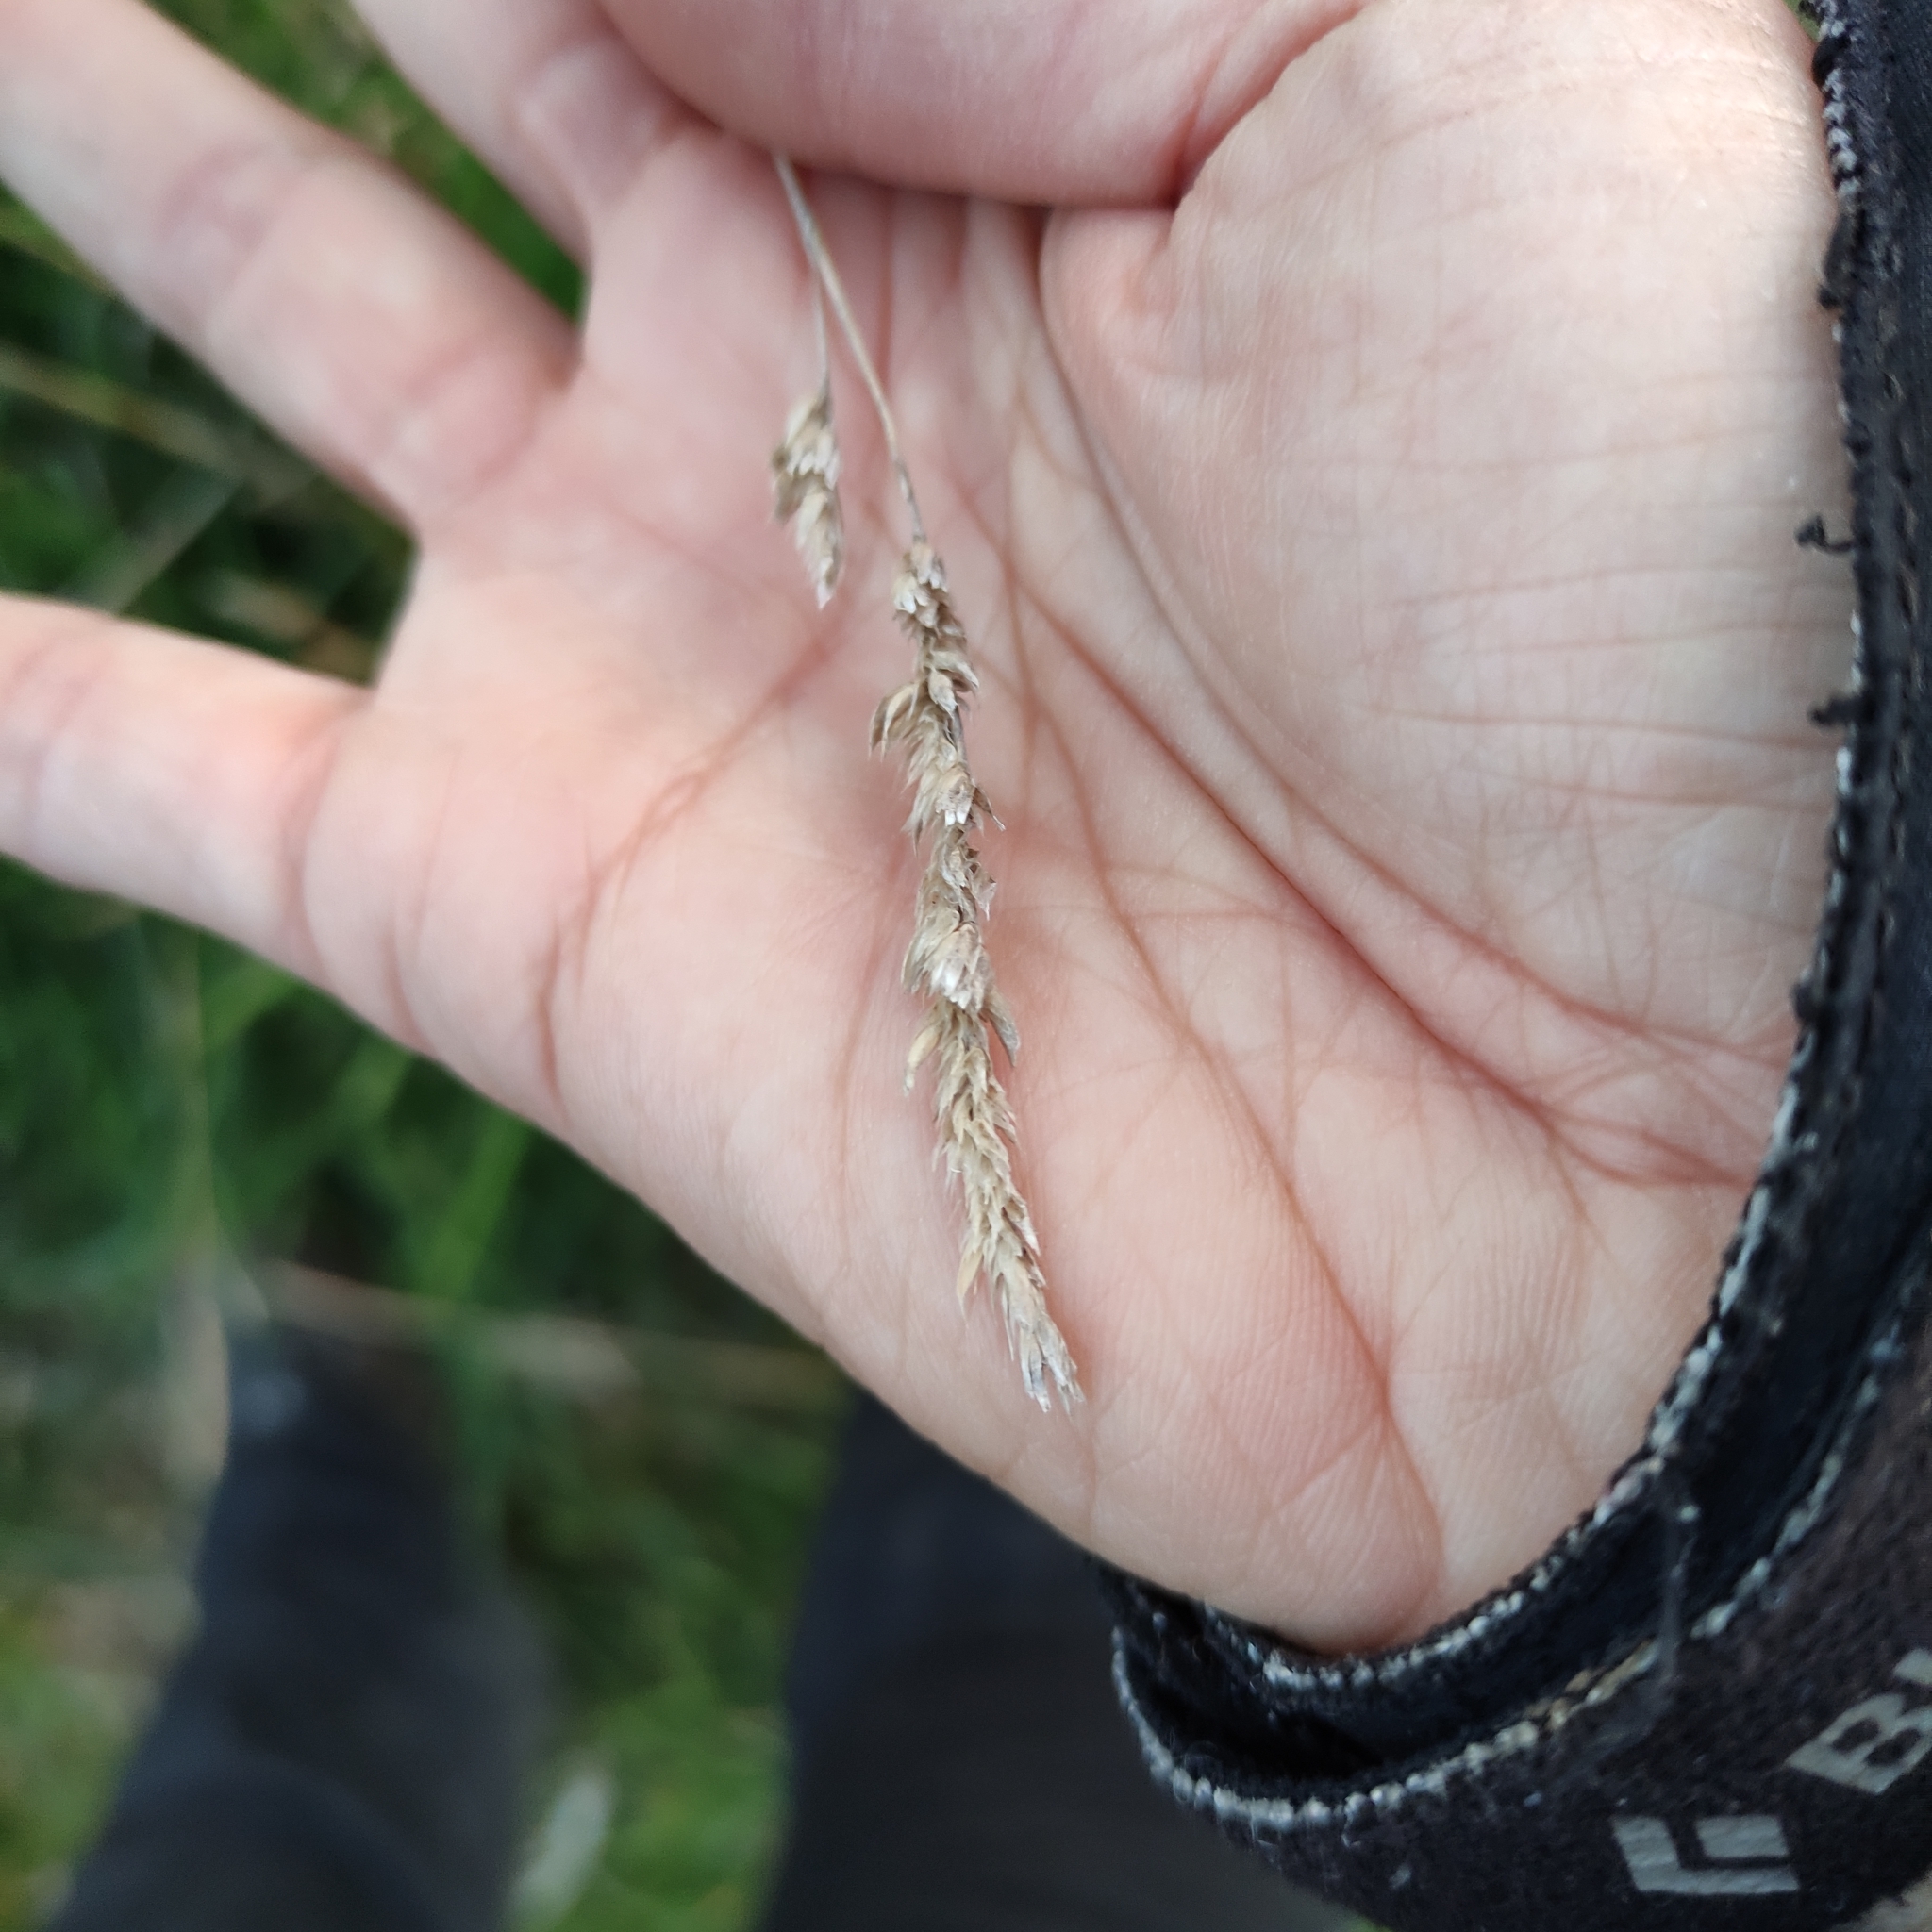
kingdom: Plantae
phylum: Tracheophyta
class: Liliopsida
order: Poales
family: Poaceae
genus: Dactylis
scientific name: Dactylis glomerata
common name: Orchardgrass
